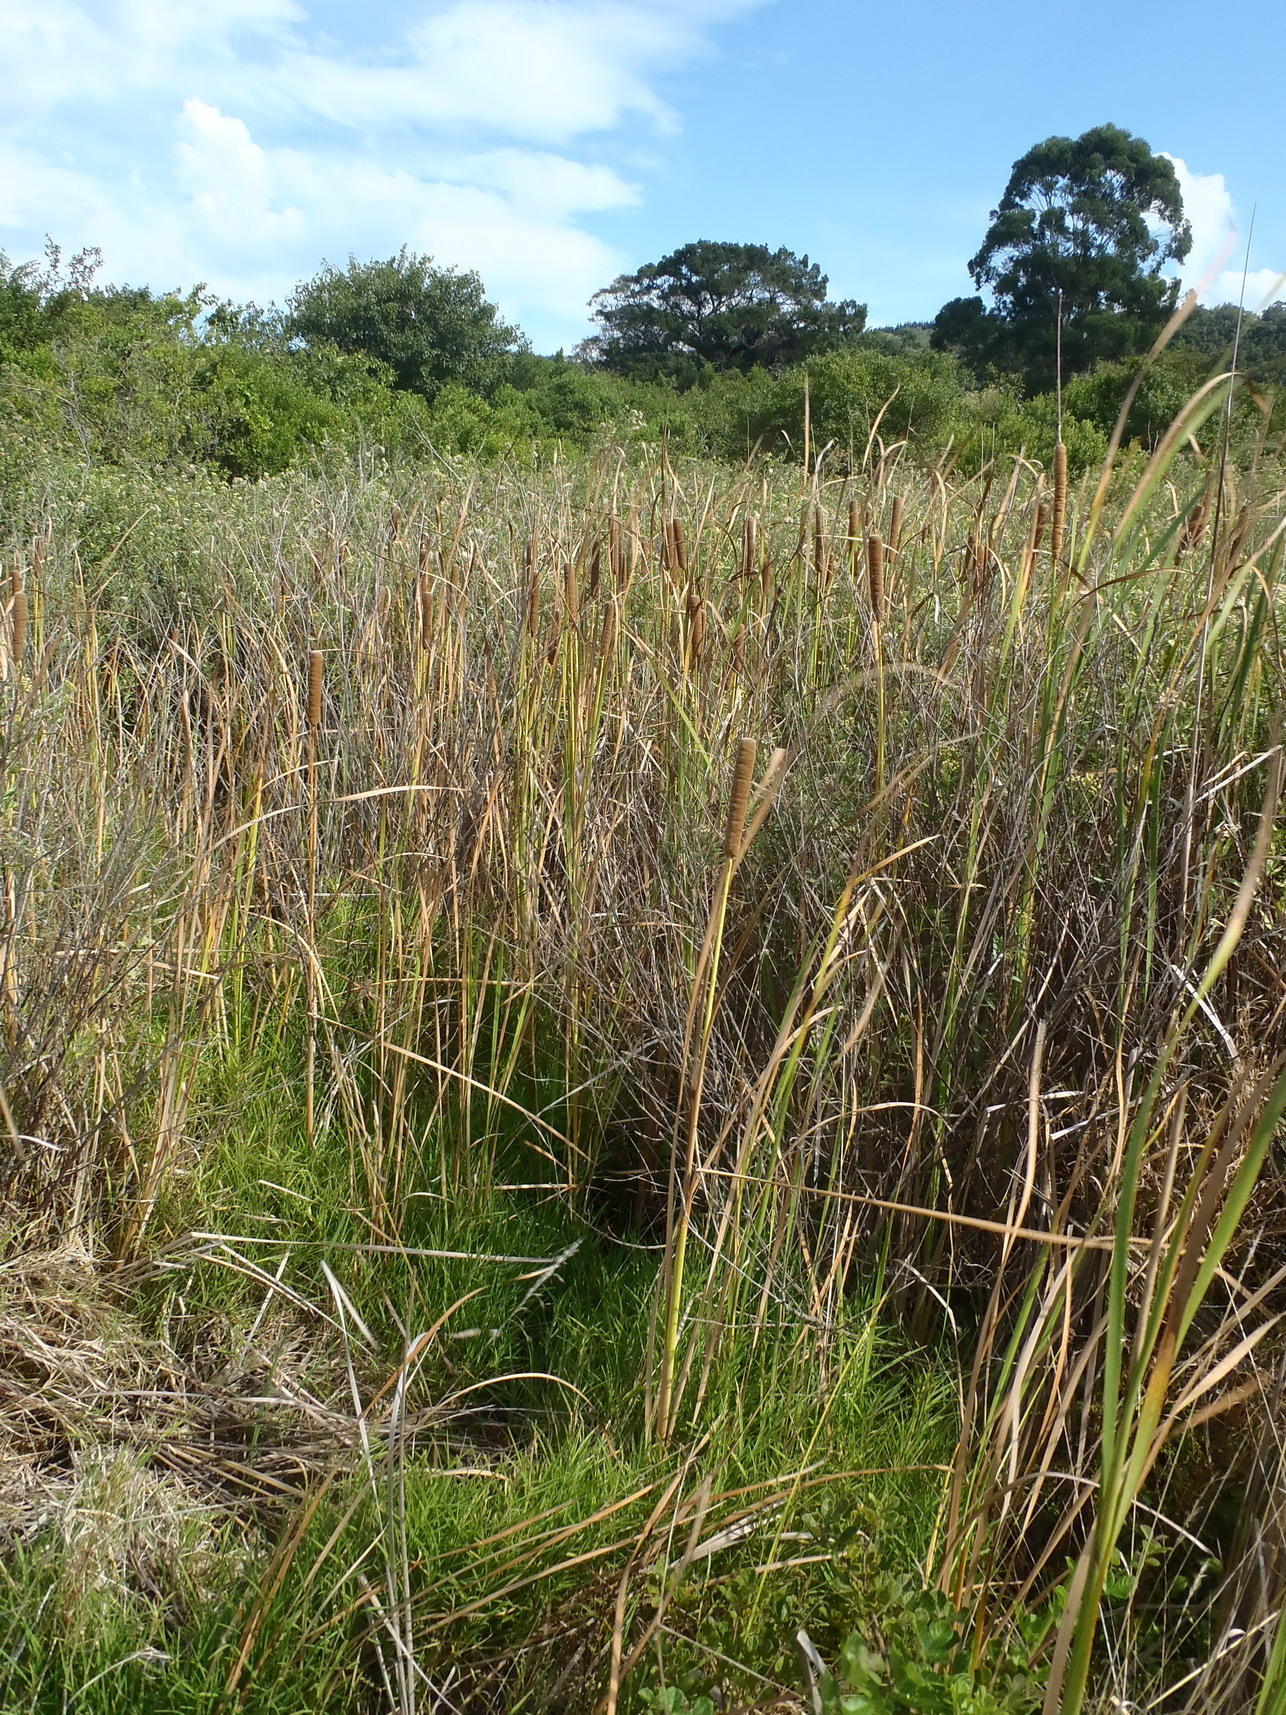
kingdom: Plantae
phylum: Tracheophyta
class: Liliopsida
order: Poales
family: Typhaceae
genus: Typha
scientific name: Typha capensis
